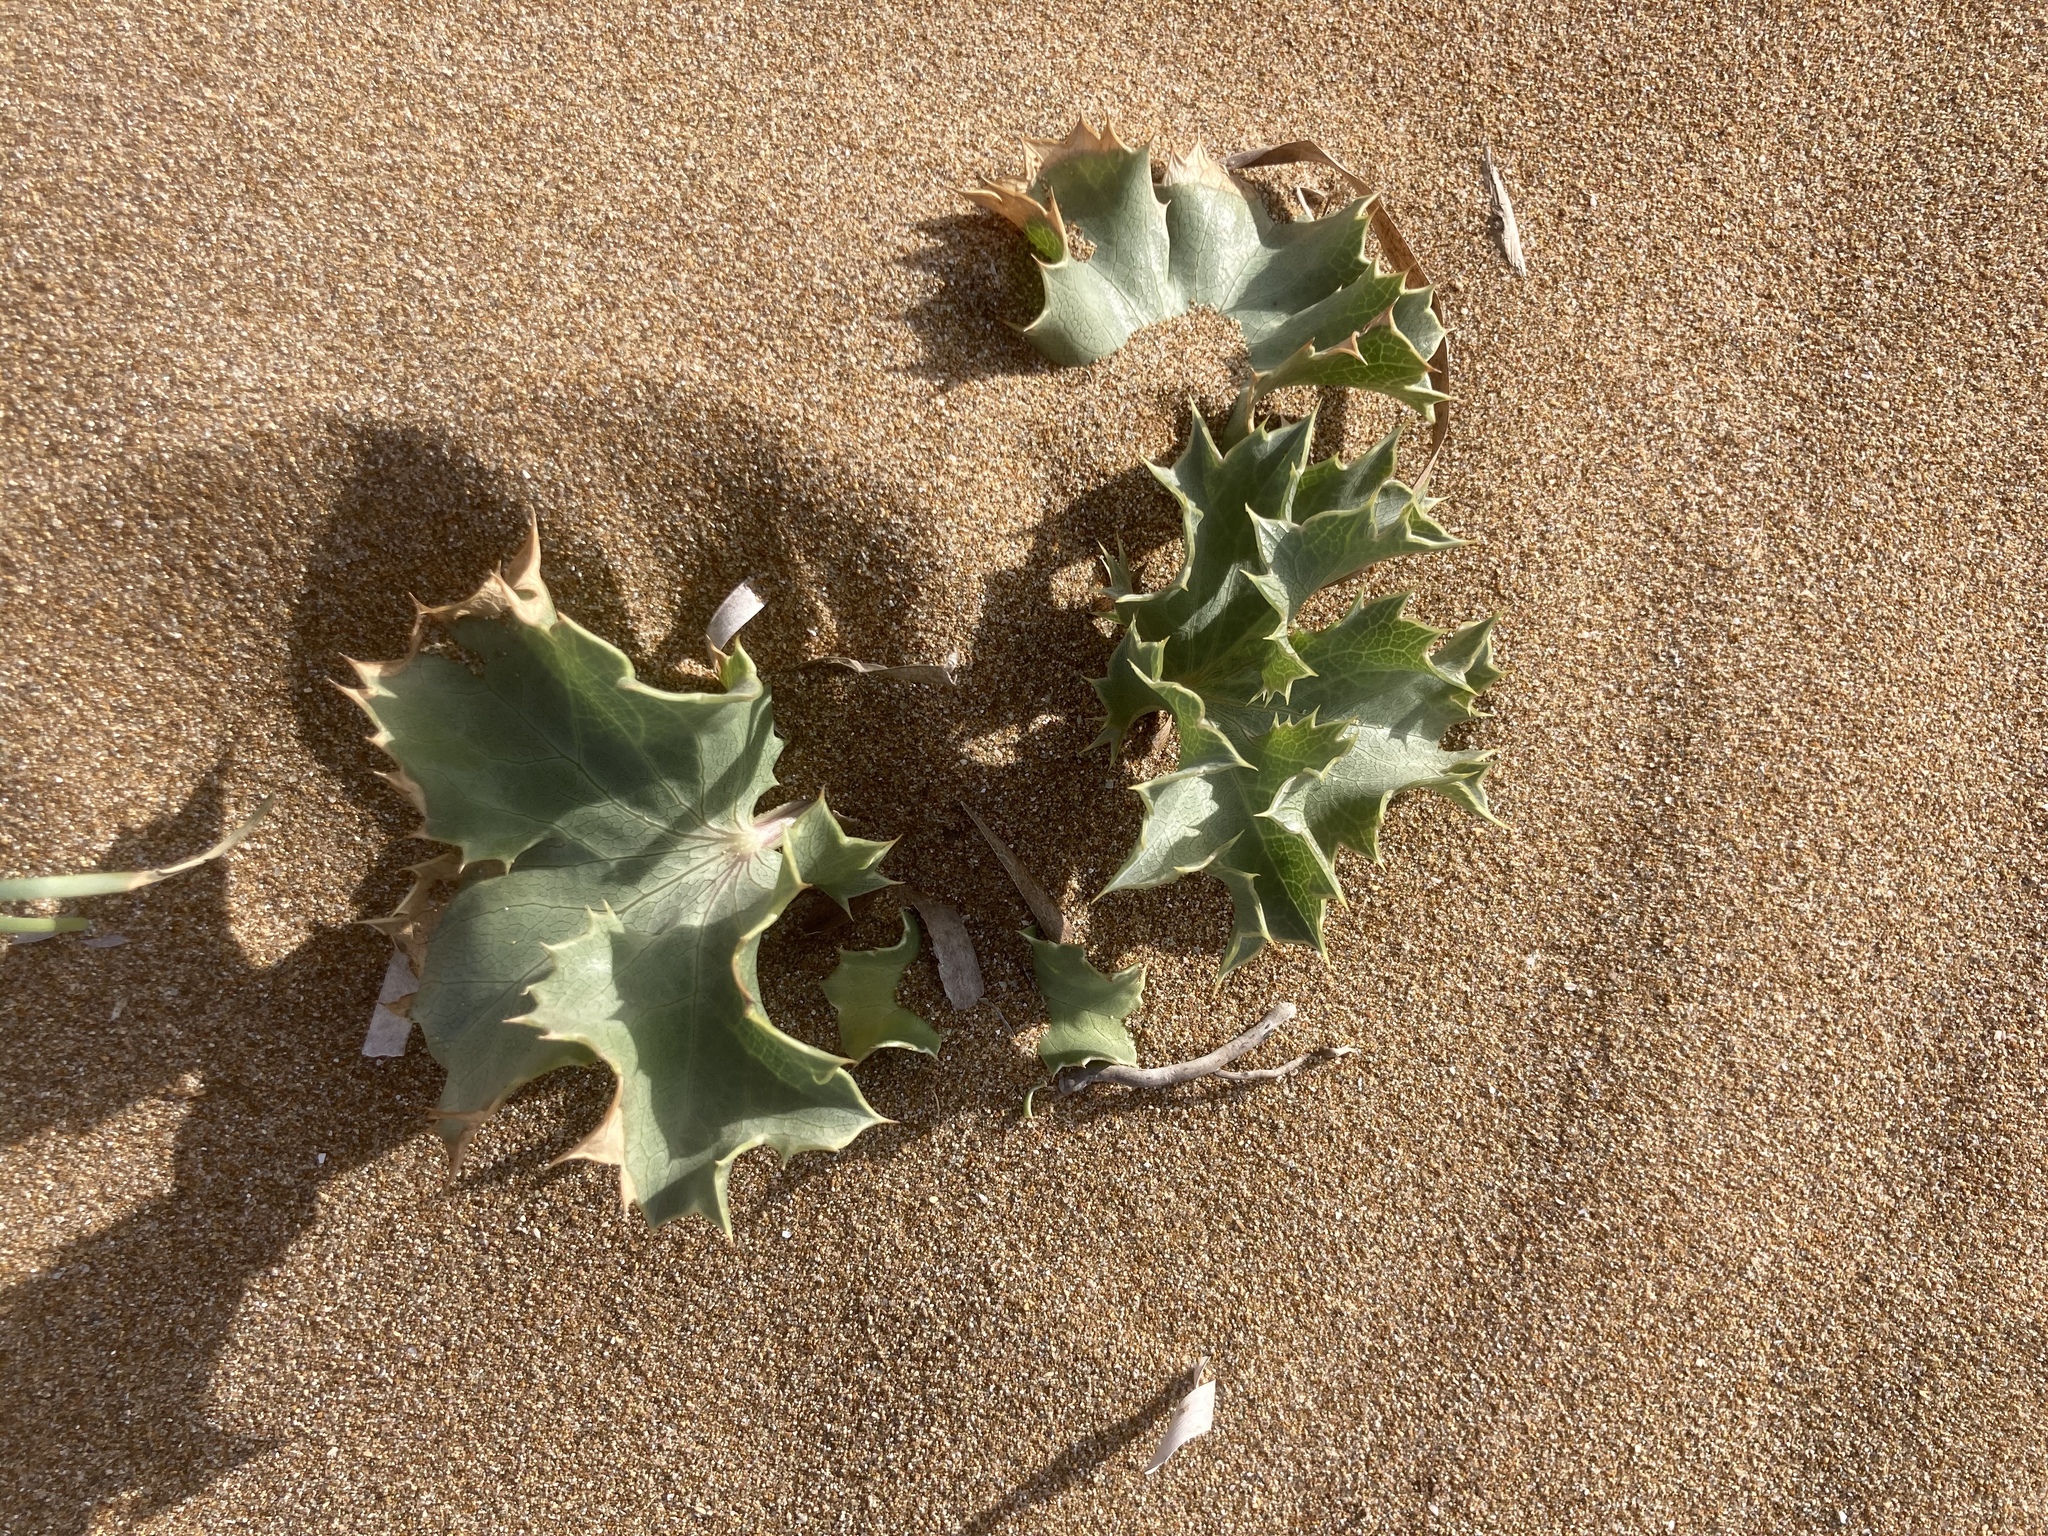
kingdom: Plantae
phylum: Tracheophyta
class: Magnoliopsida
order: Apiales
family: Apiaceae
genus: Eryngium
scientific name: Eryngium maritimum
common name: Sea-holly
